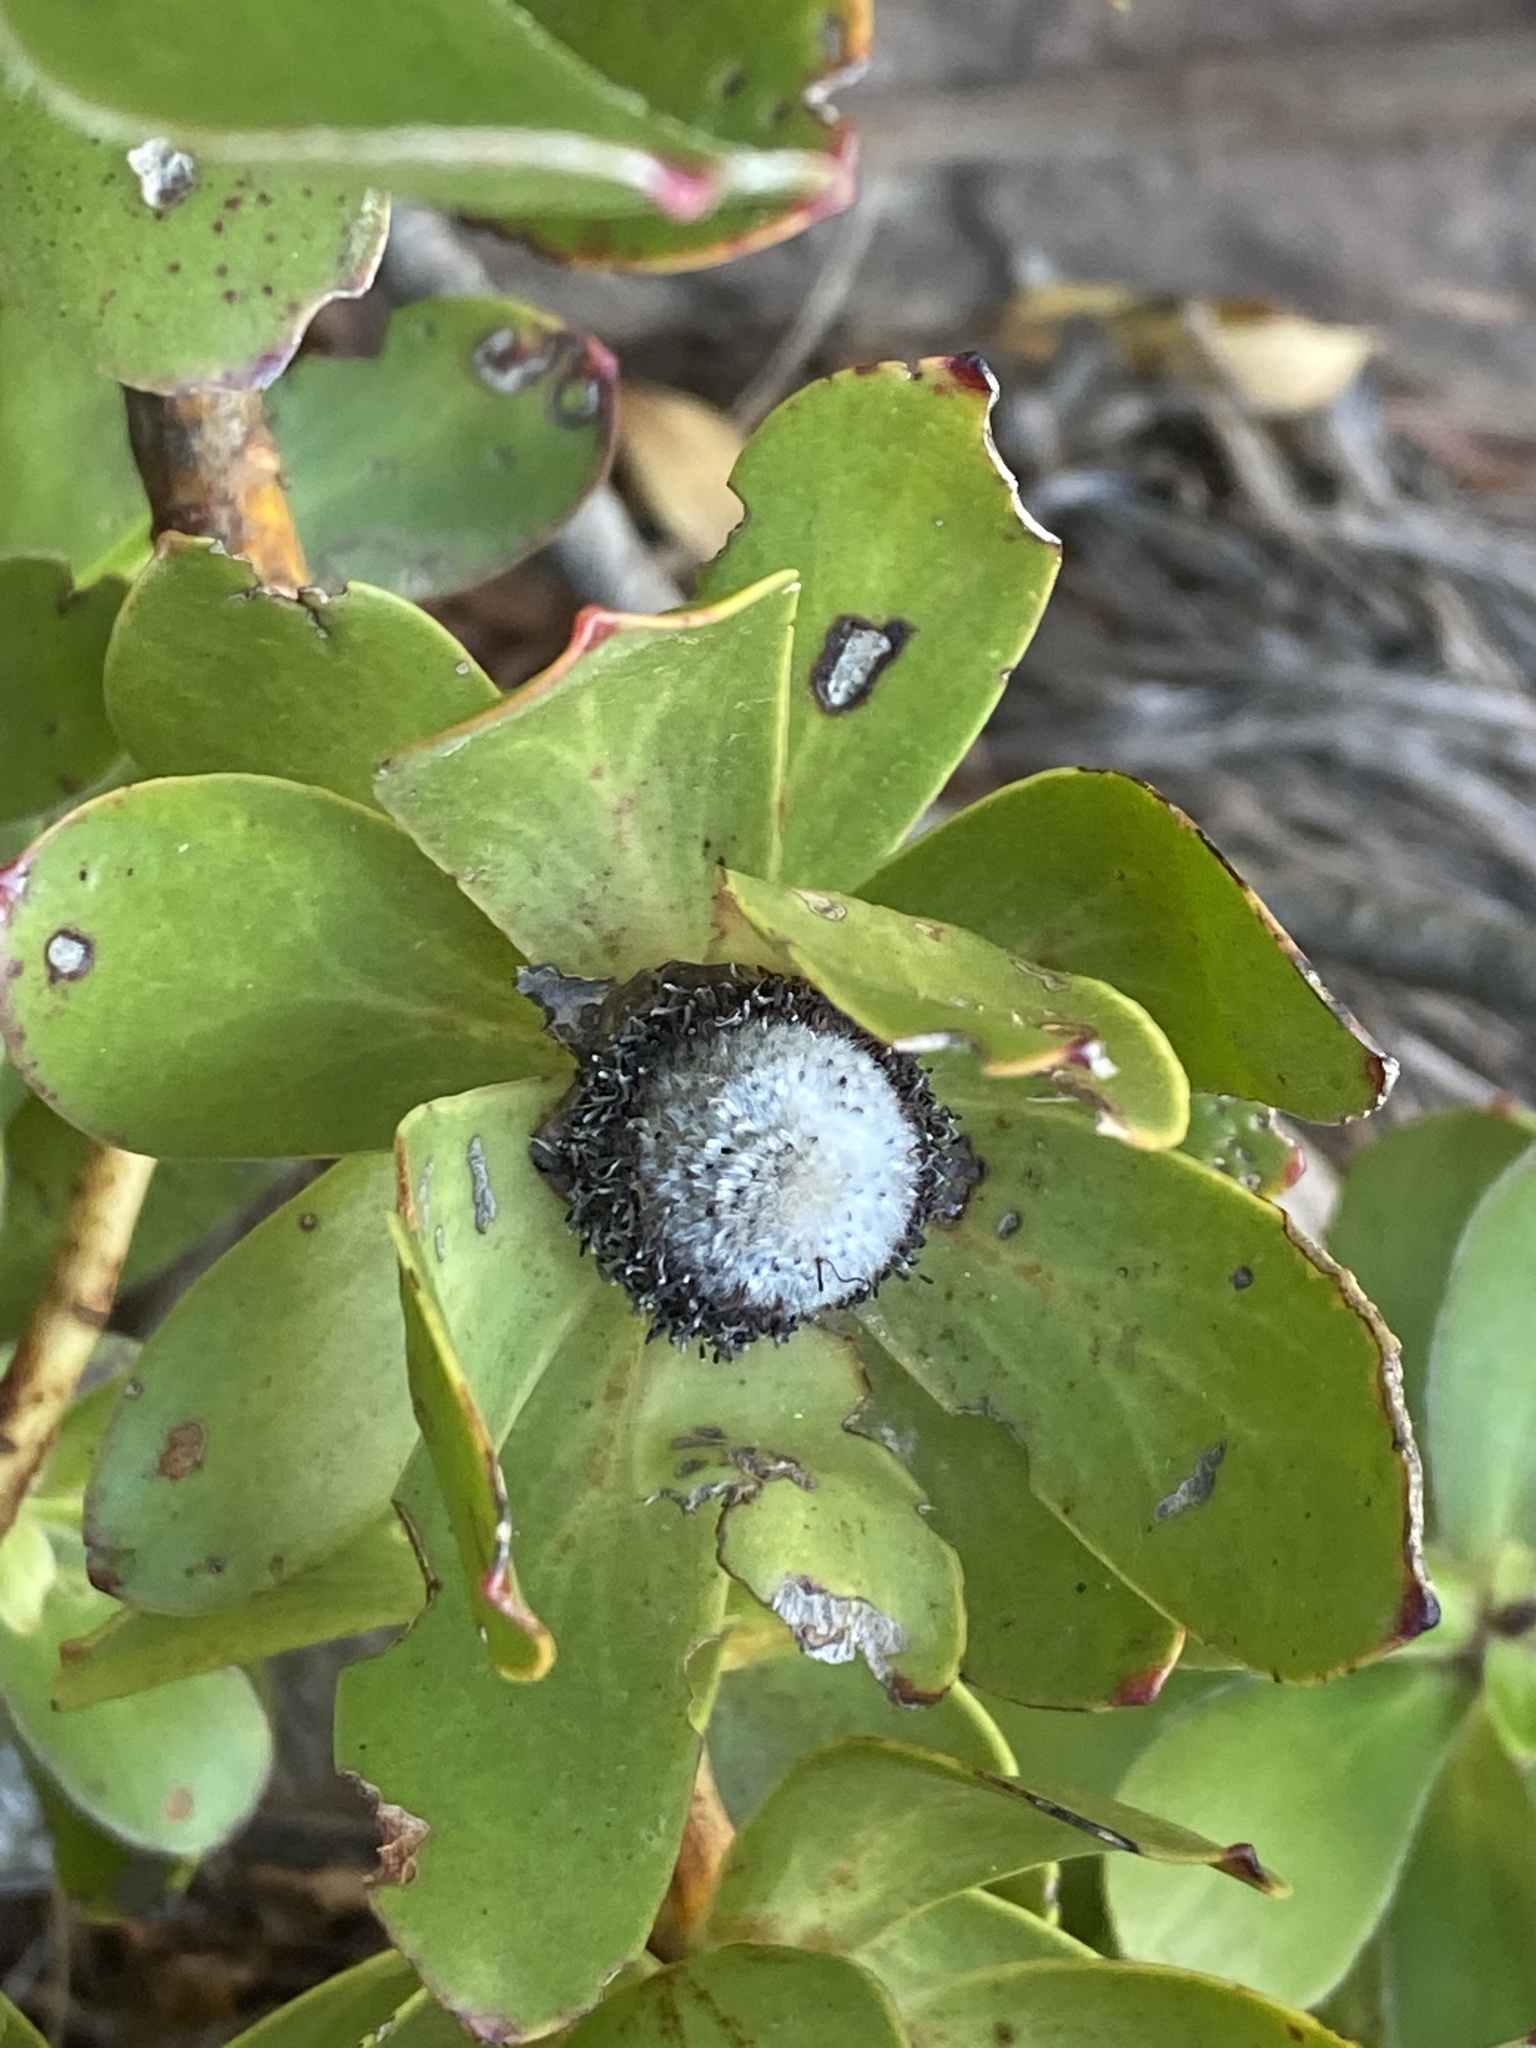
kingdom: Plantae
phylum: Tracheophyta
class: Magnoliopsida
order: Proteales
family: Proteaceae
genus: Leucadendron
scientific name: Leucadendron strobilinum
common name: Mountain rose
